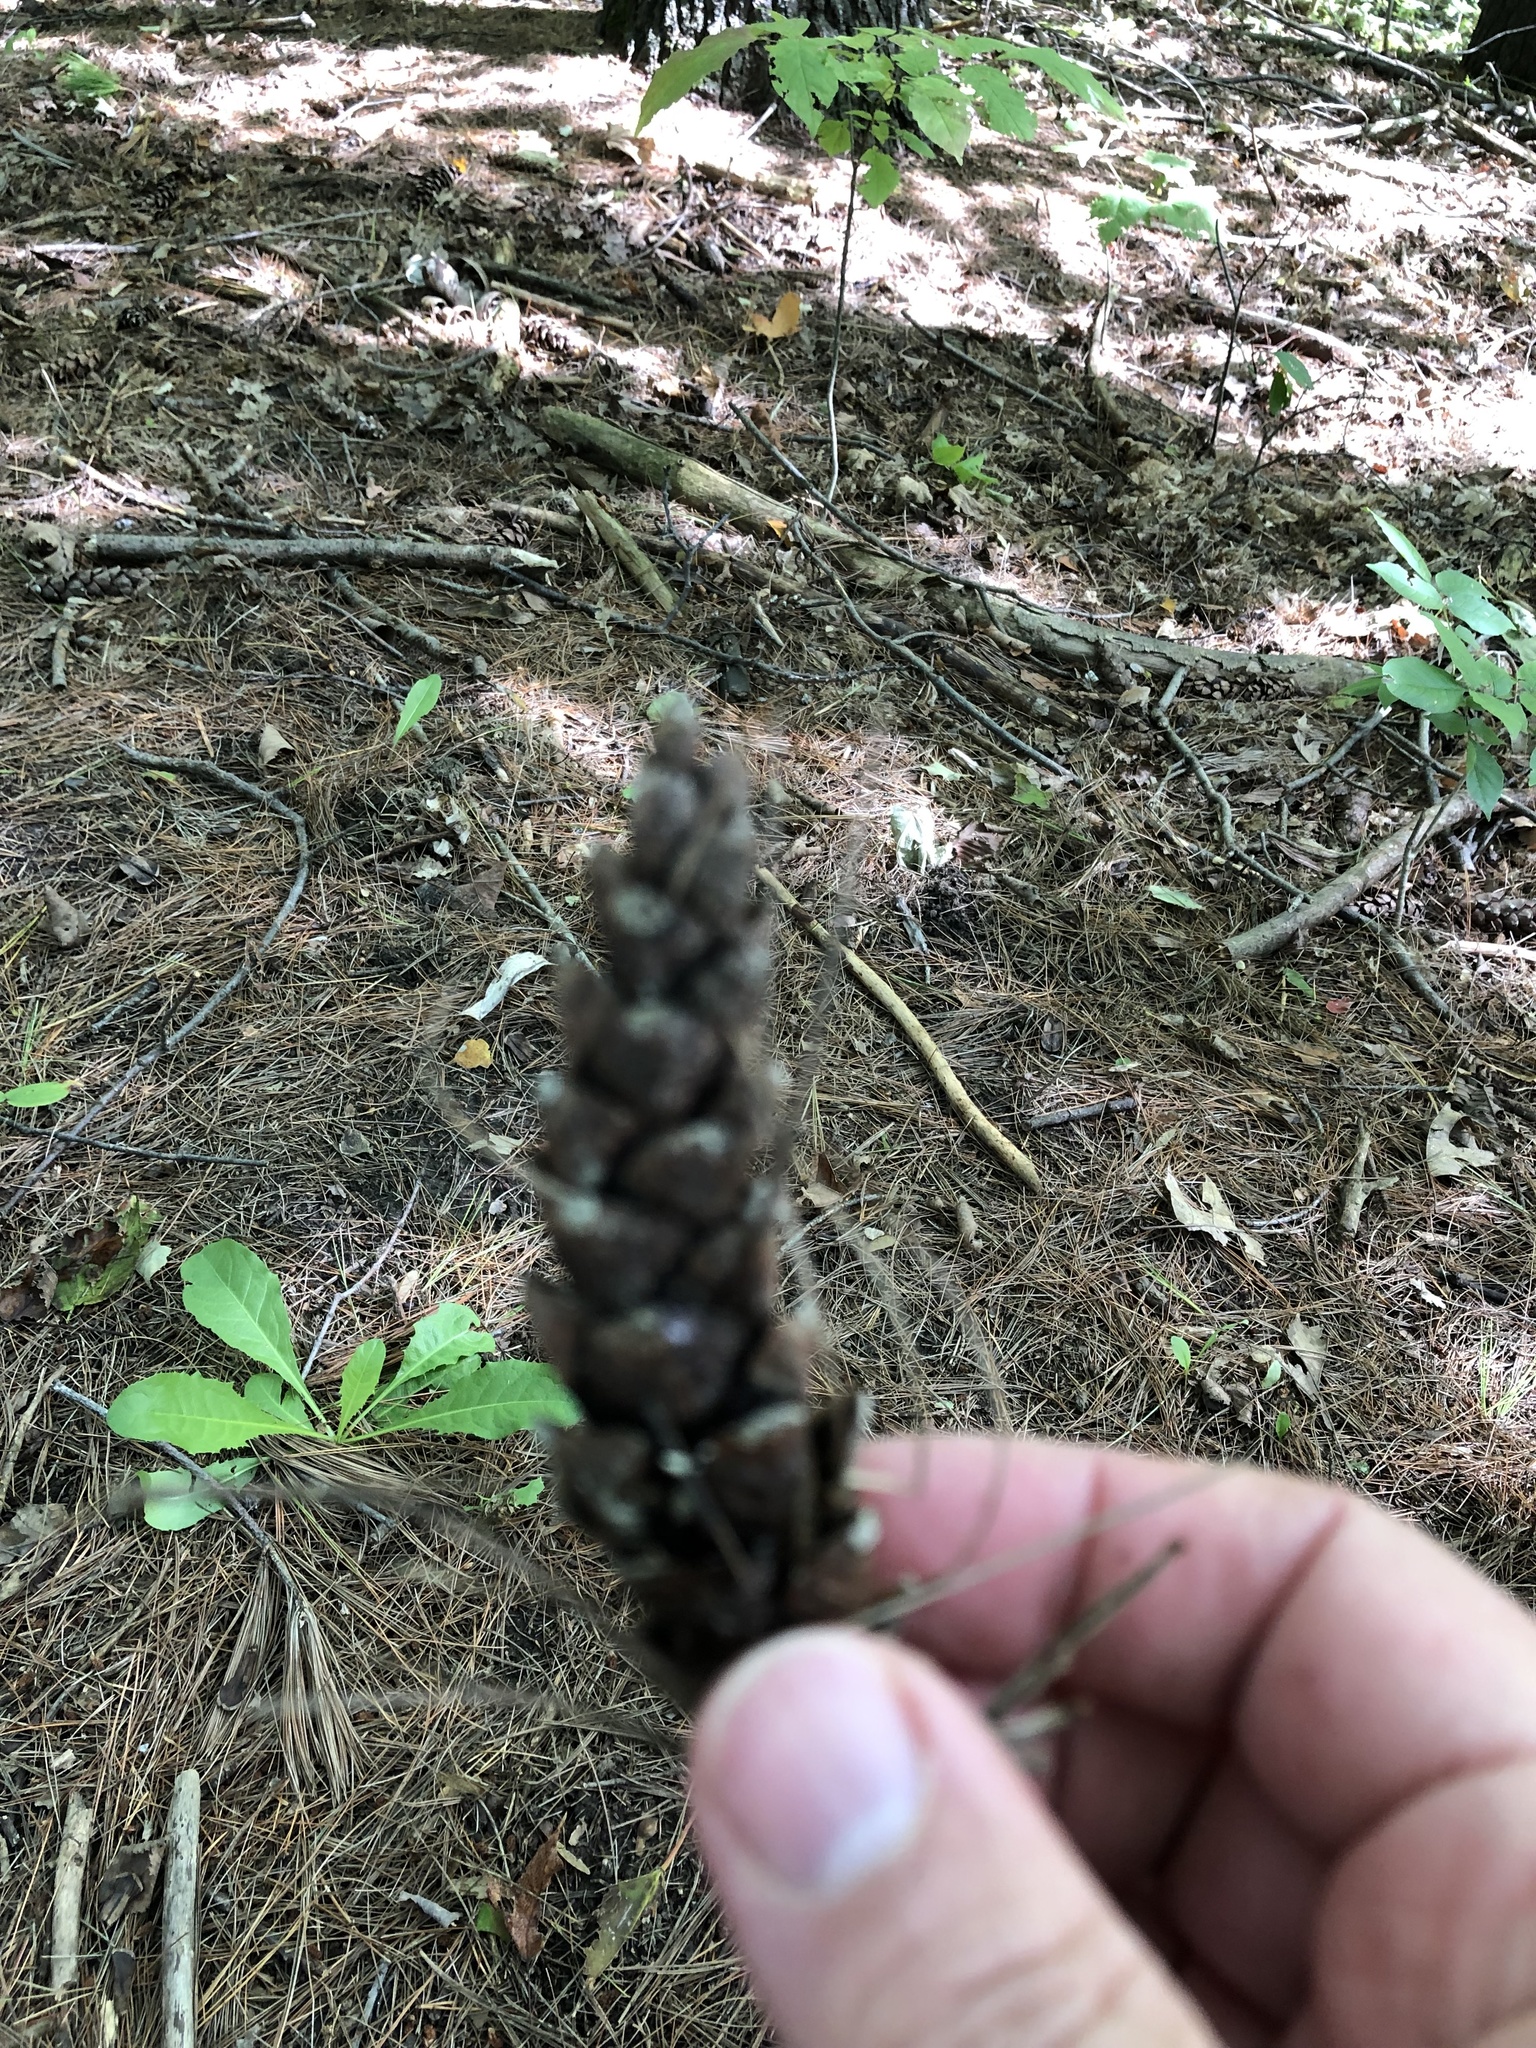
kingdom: Plantae
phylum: Tracheophyta
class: Pinopsida
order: Pinales
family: Pinaceae
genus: Pinus
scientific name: Pinus strobus
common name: Weymouth pine
